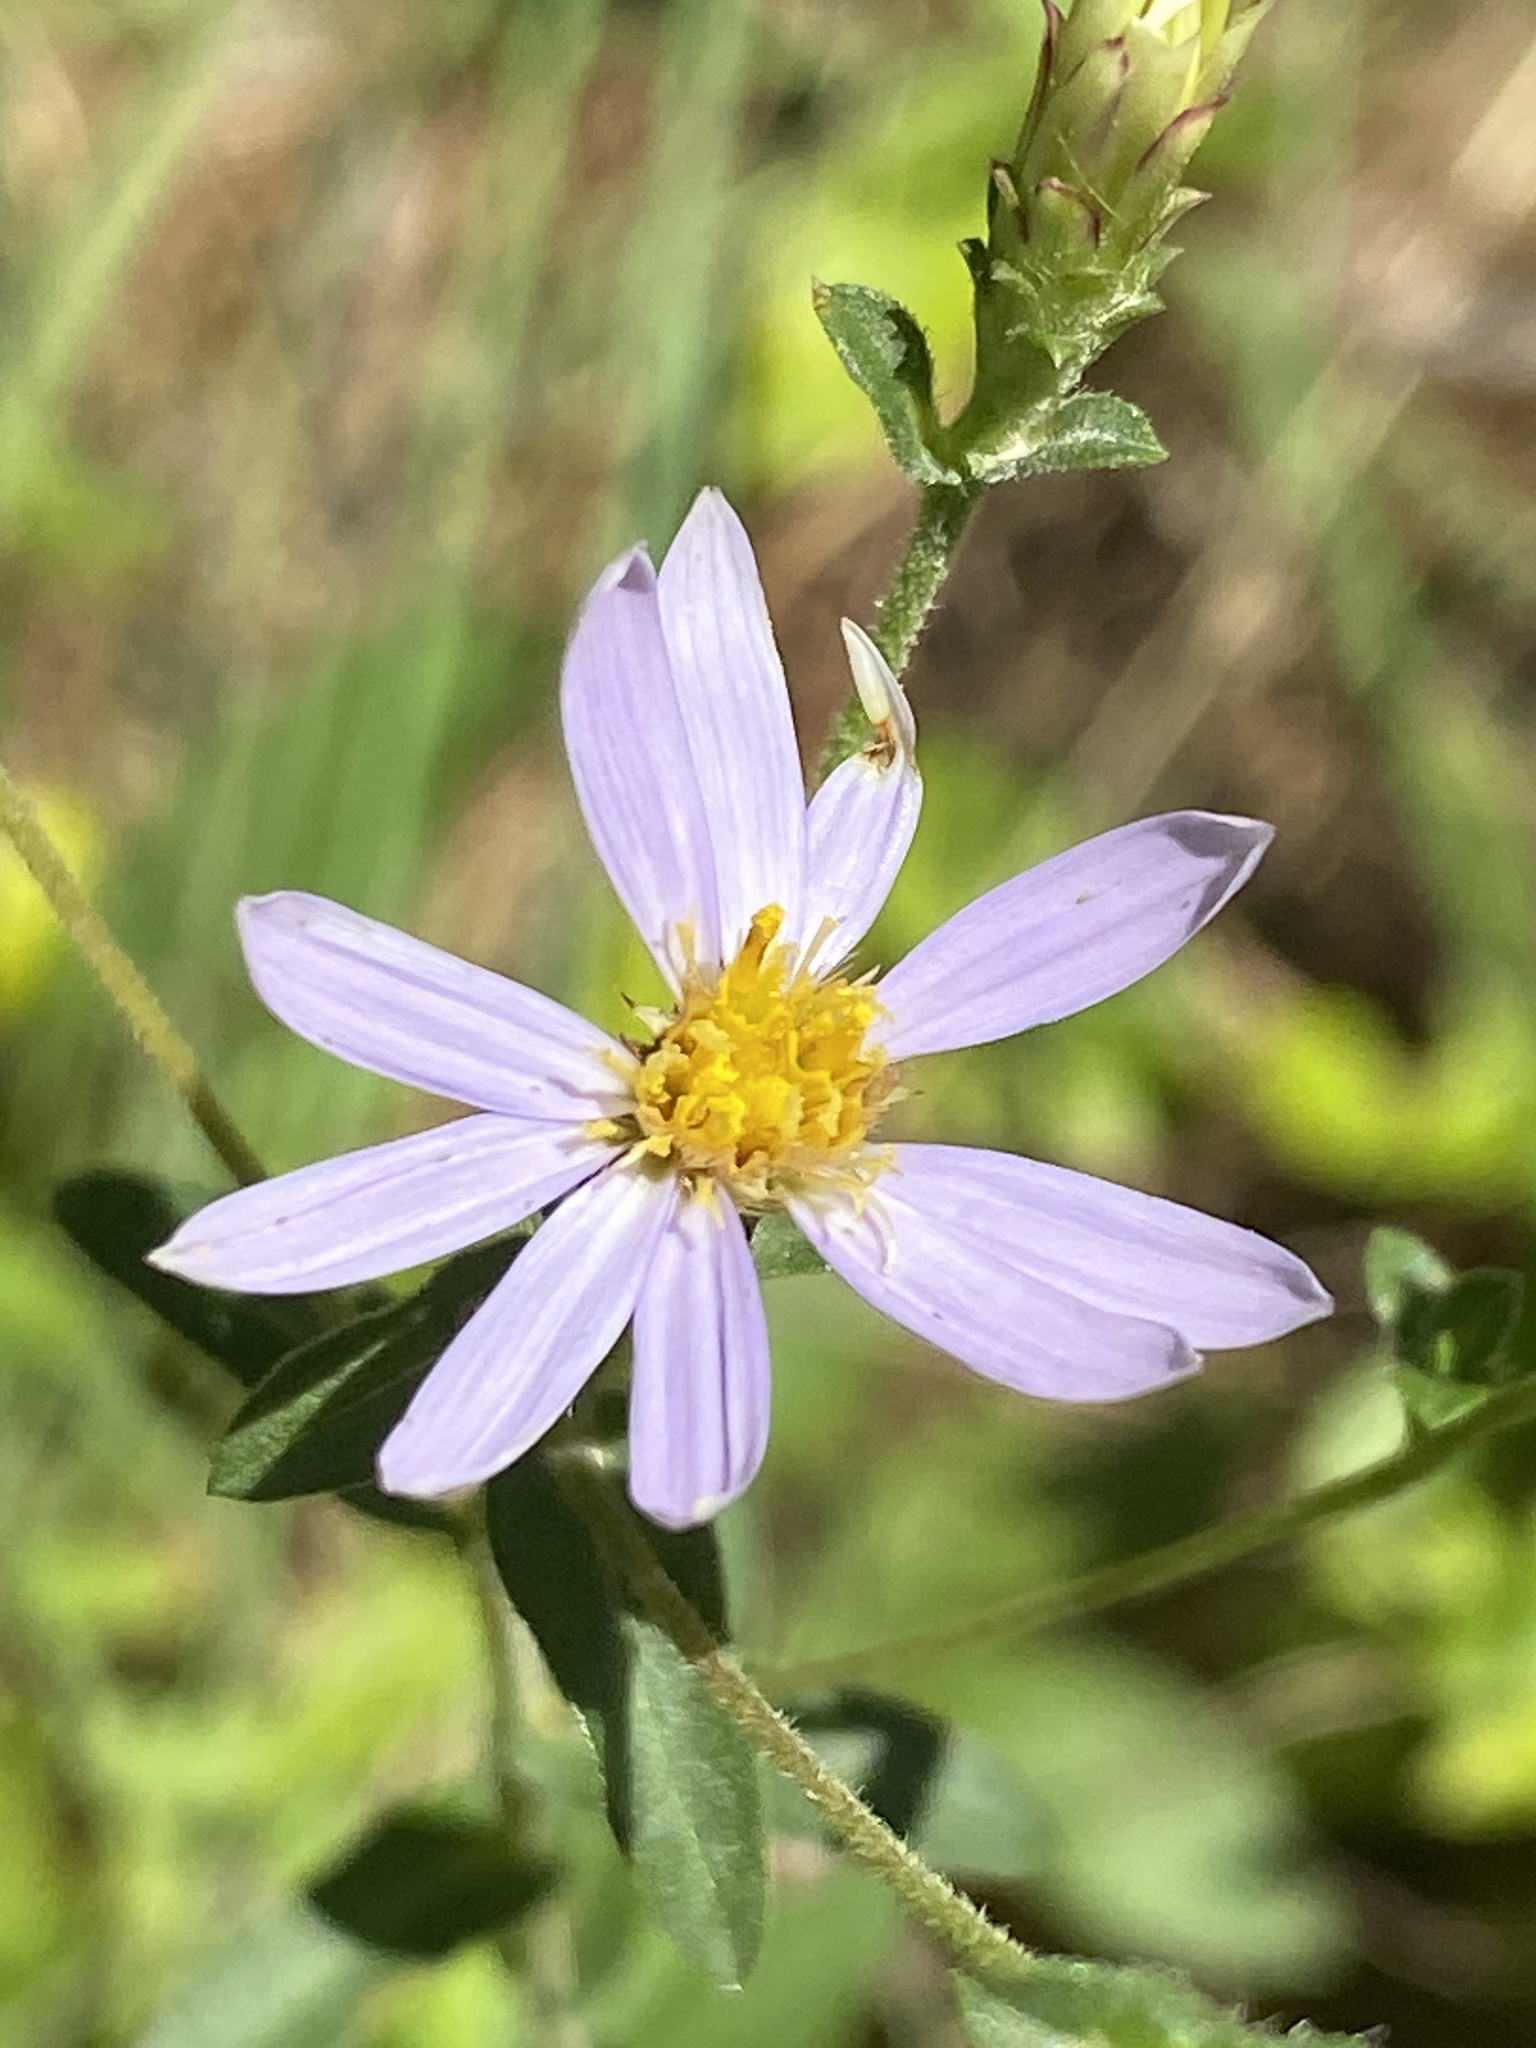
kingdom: Plantae
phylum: Tracheophyta
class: Magnoliopsida
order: Asterales
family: Asteraceae
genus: Eurybia
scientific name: Eurybia compacta
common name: Slender aster
